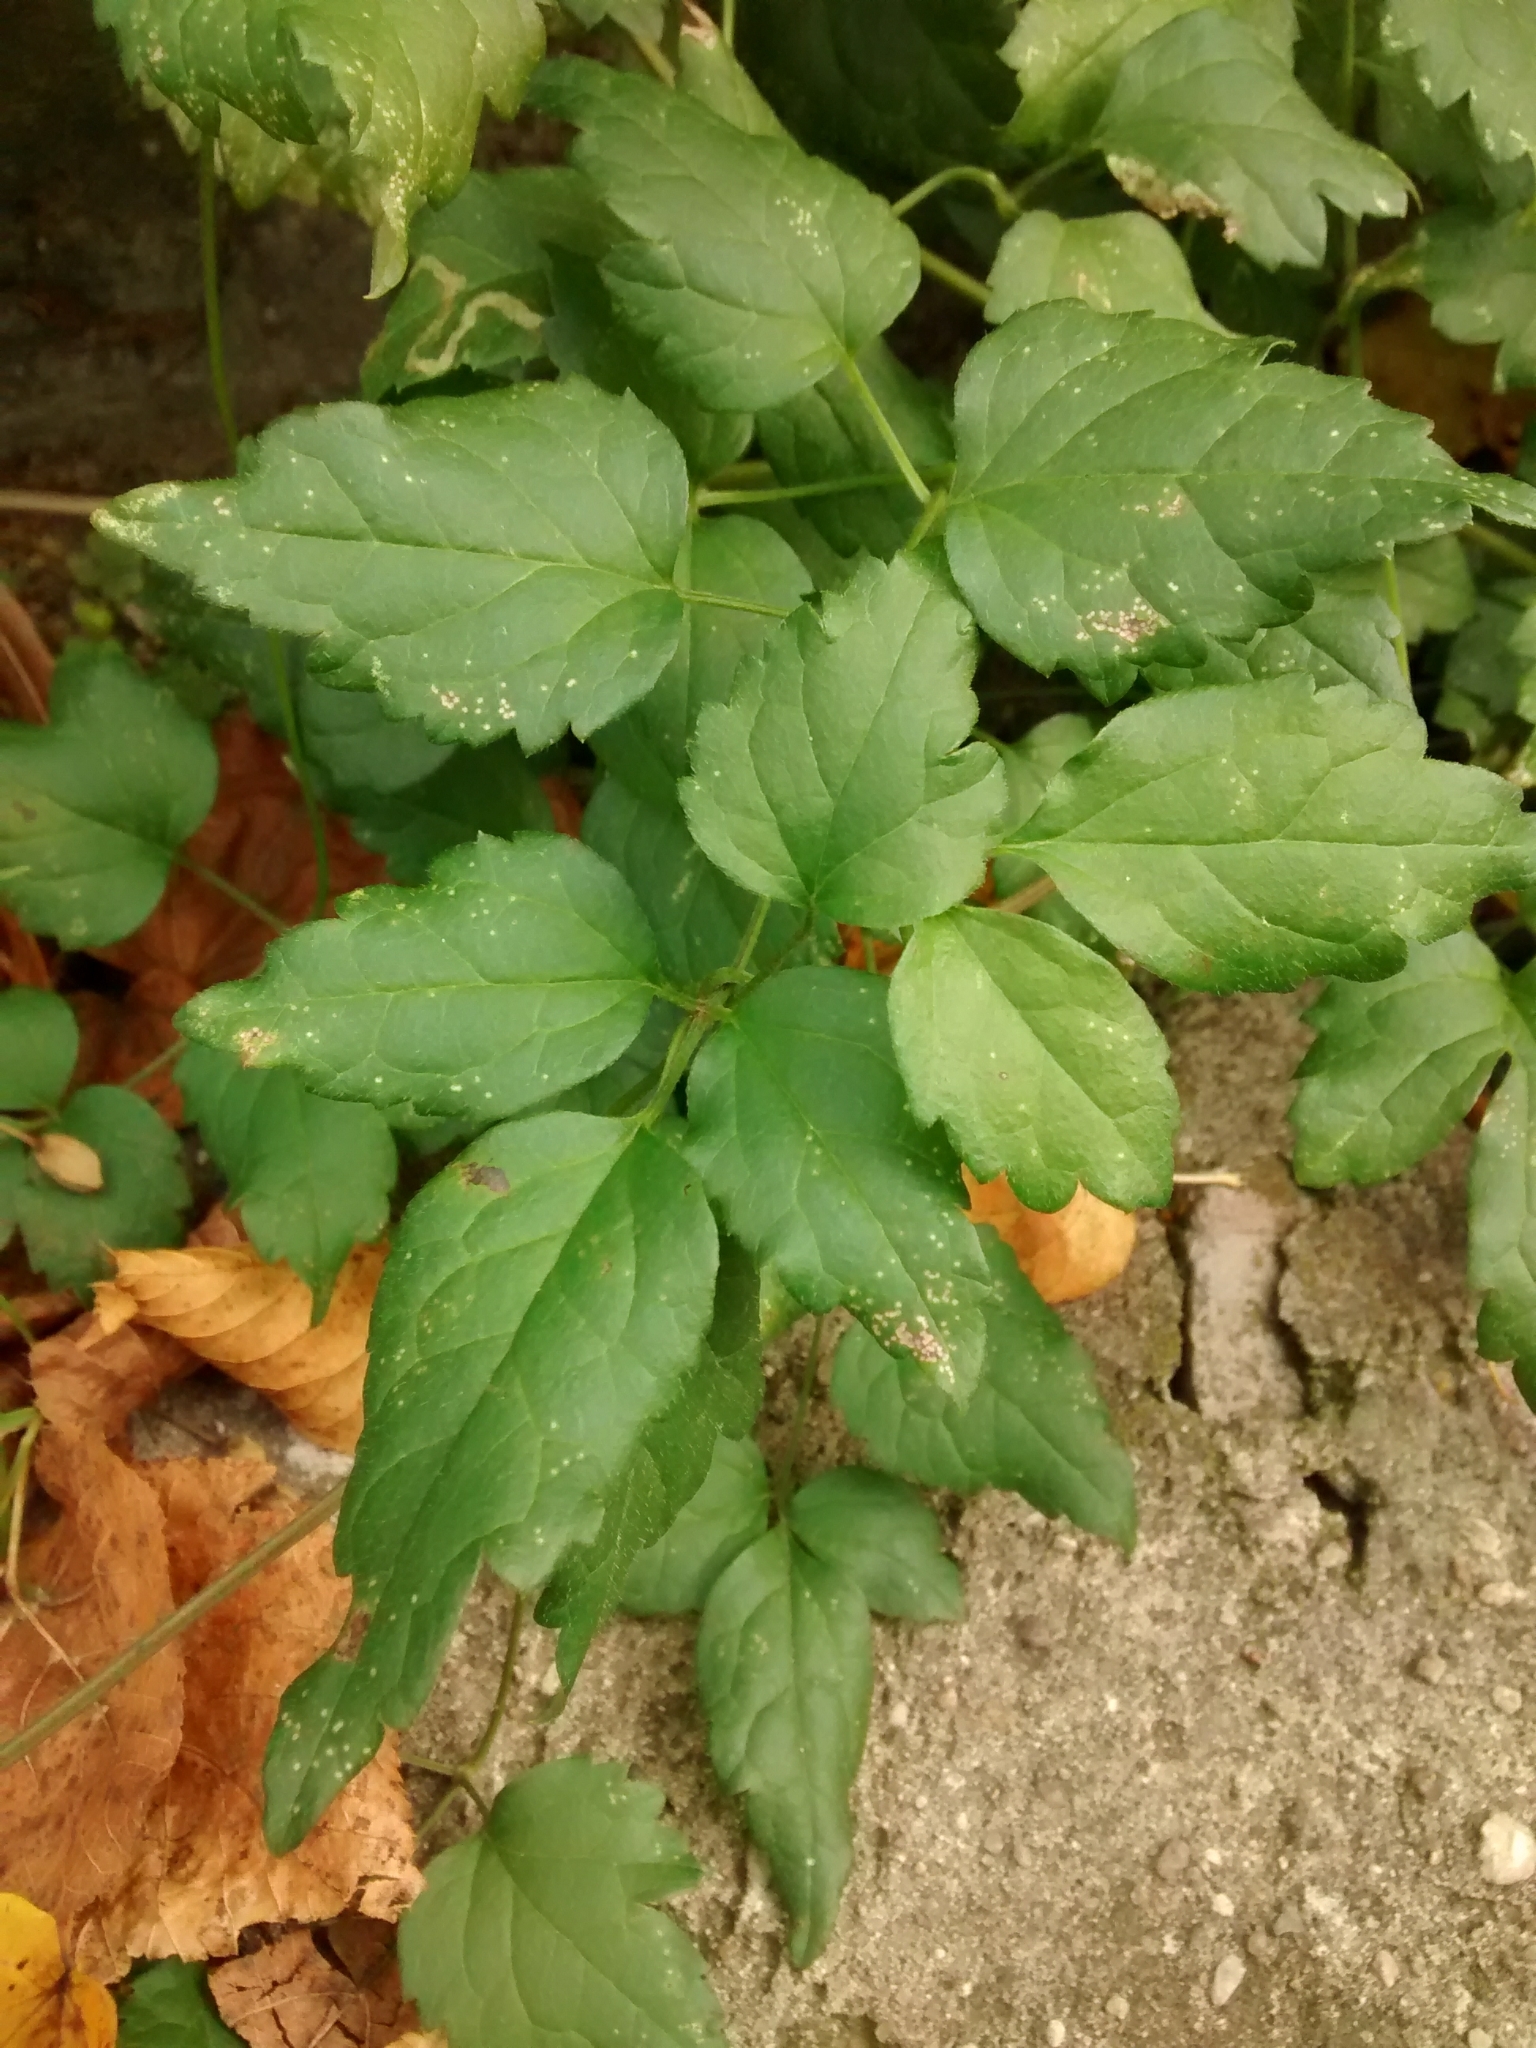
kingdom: Plantae
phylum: Tracheophyta
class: Magnoliopsida
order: Ranunculales
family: Ranunculaceae
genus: Clematis
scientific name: Clematis vitalba
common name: Evergreen clematis
